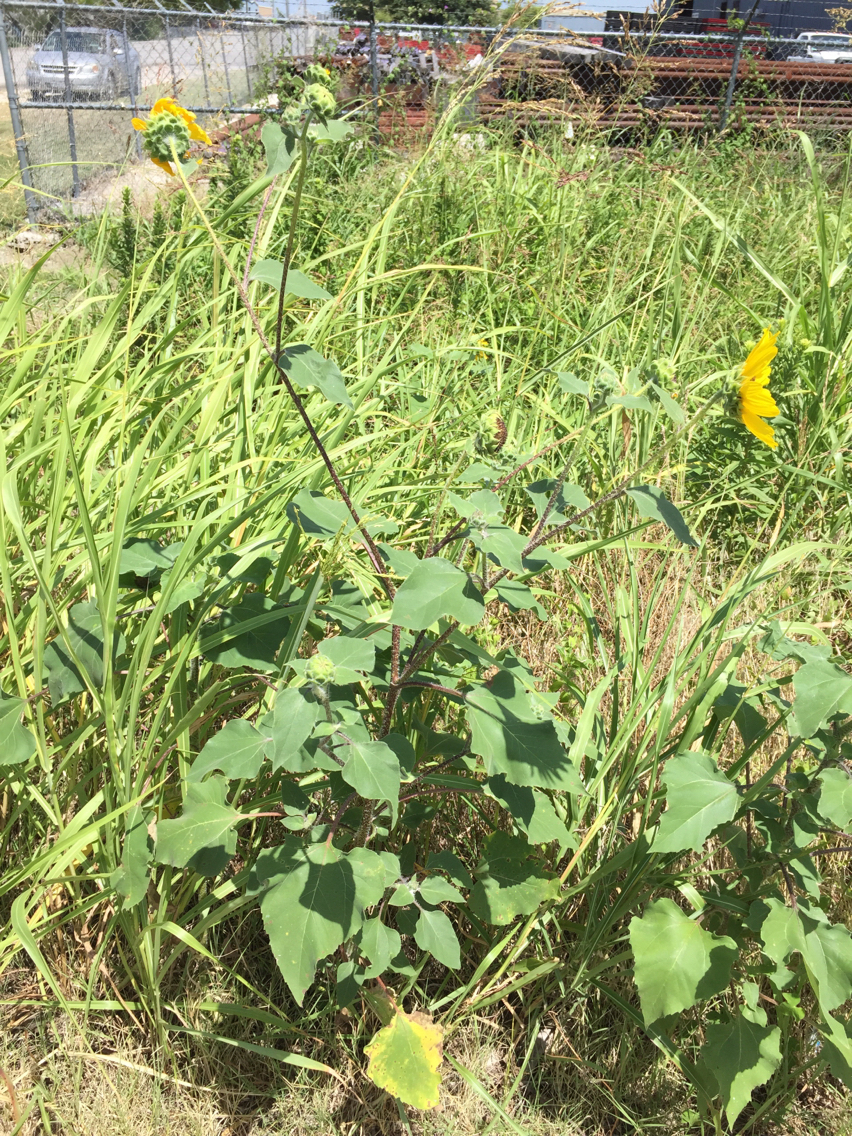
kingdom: Plantae
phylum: Tracheophyta
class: Magnoliopsida
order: Asterales
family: Asteraceae
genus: Helianthus
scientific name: Helianthus annuus
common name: Sunflower
